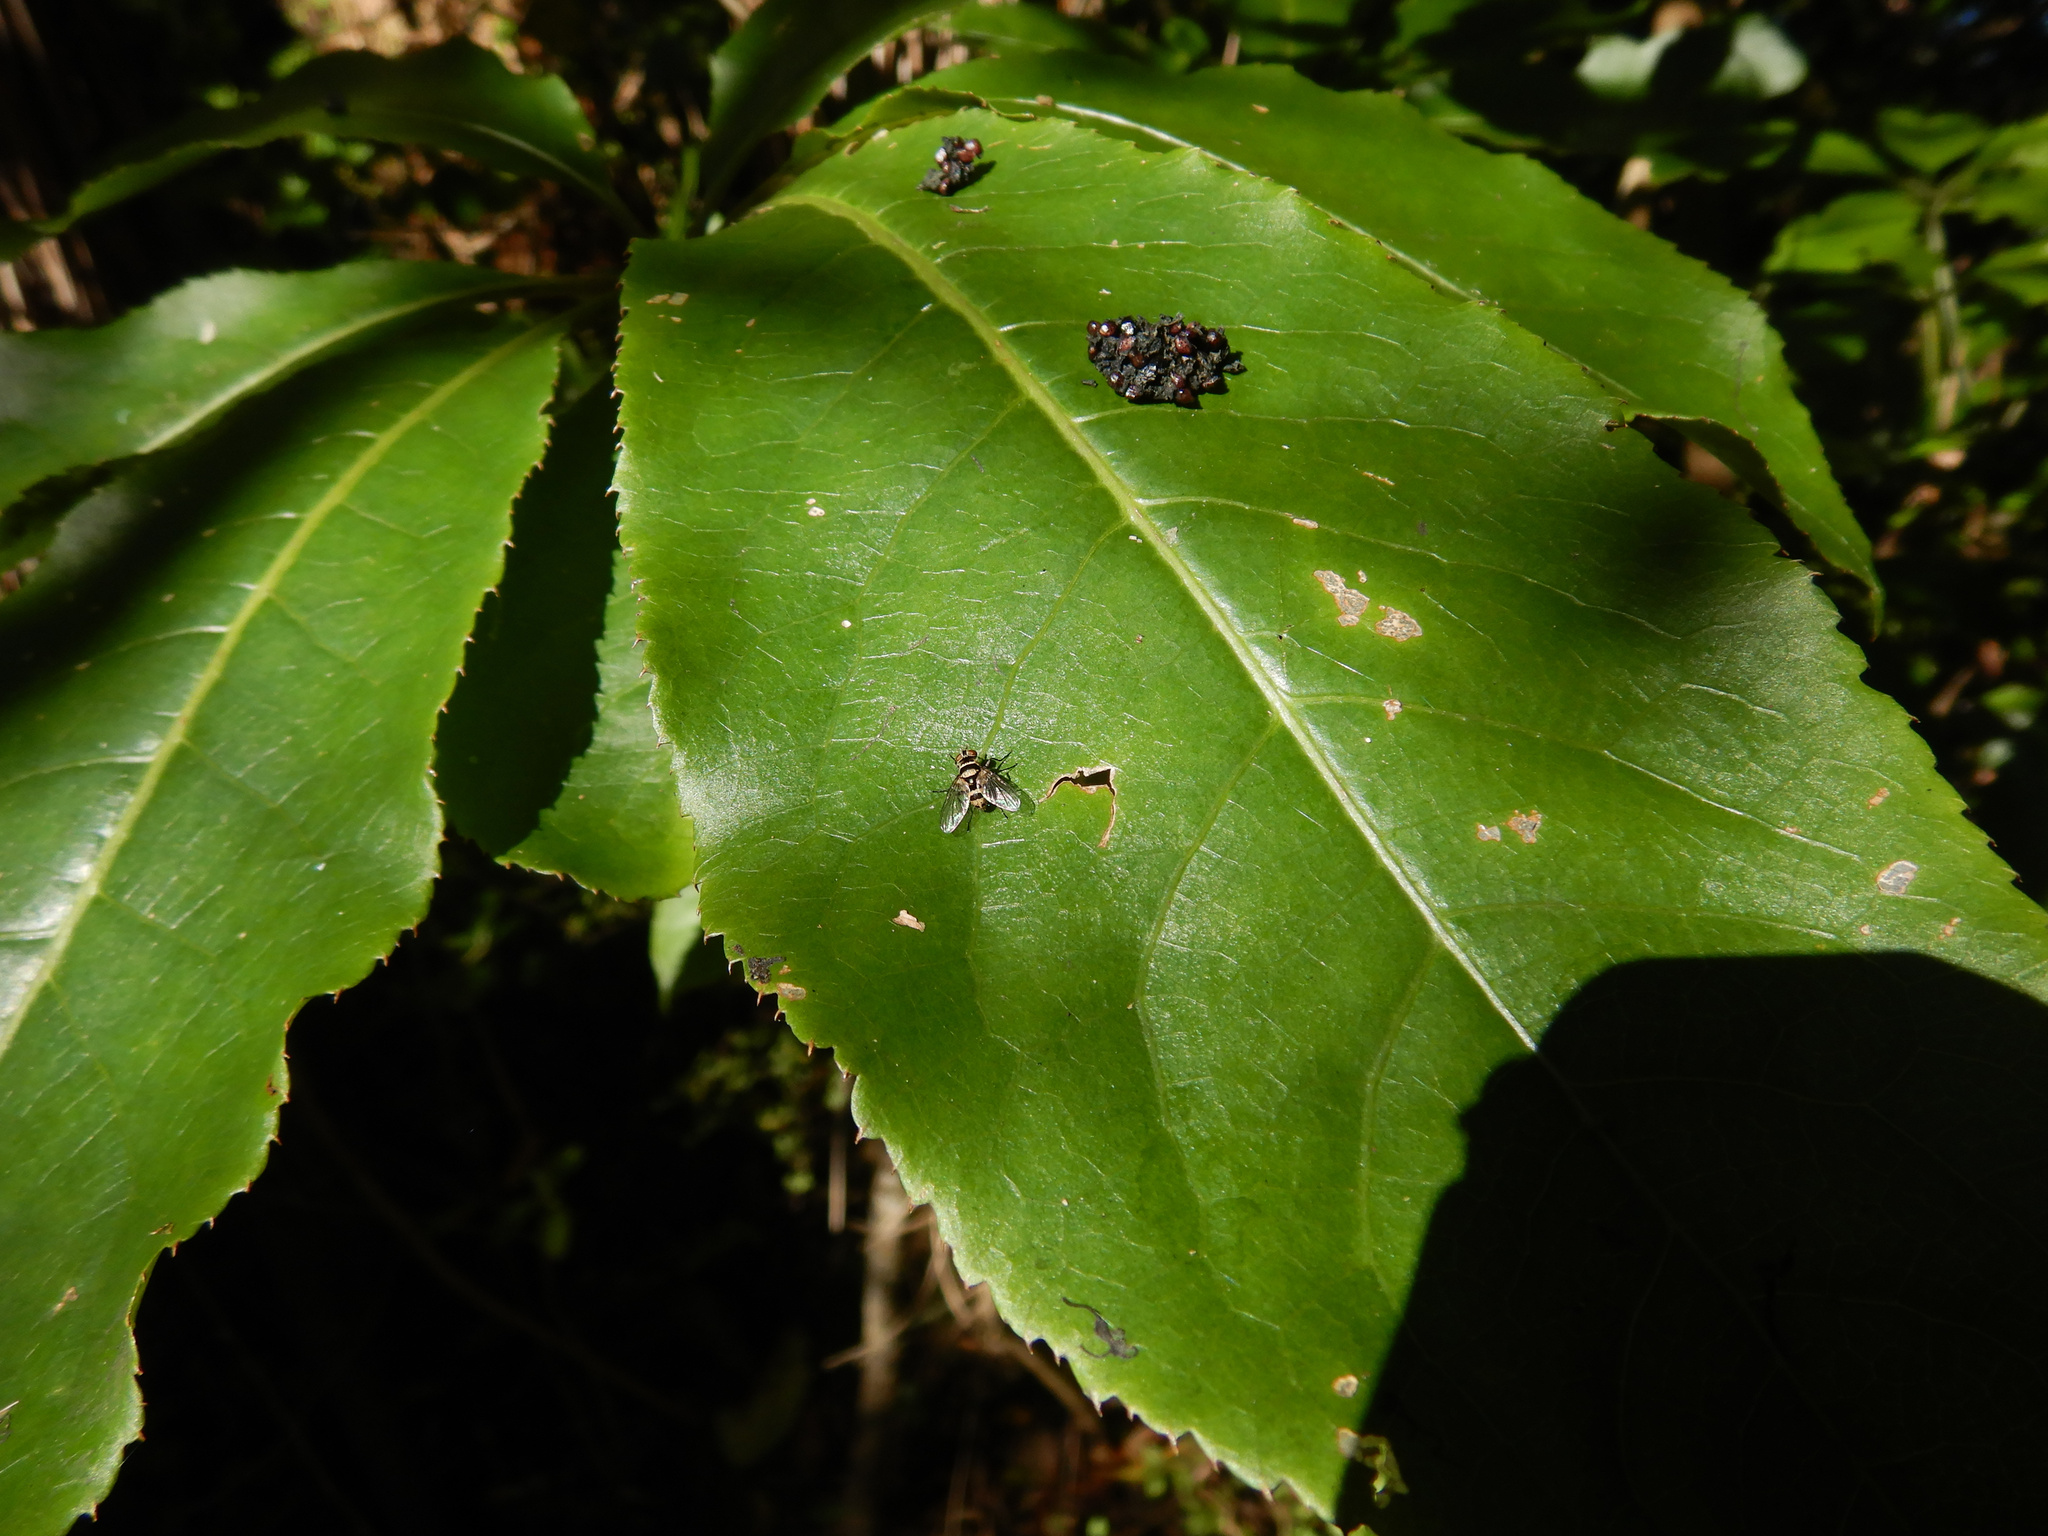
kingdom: Plantae
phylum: Tracheophyta
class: Magnoliopsida
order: Apiales
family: Araliaceae
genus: Schefflera
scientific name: Schefflera digitata
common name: Pate
